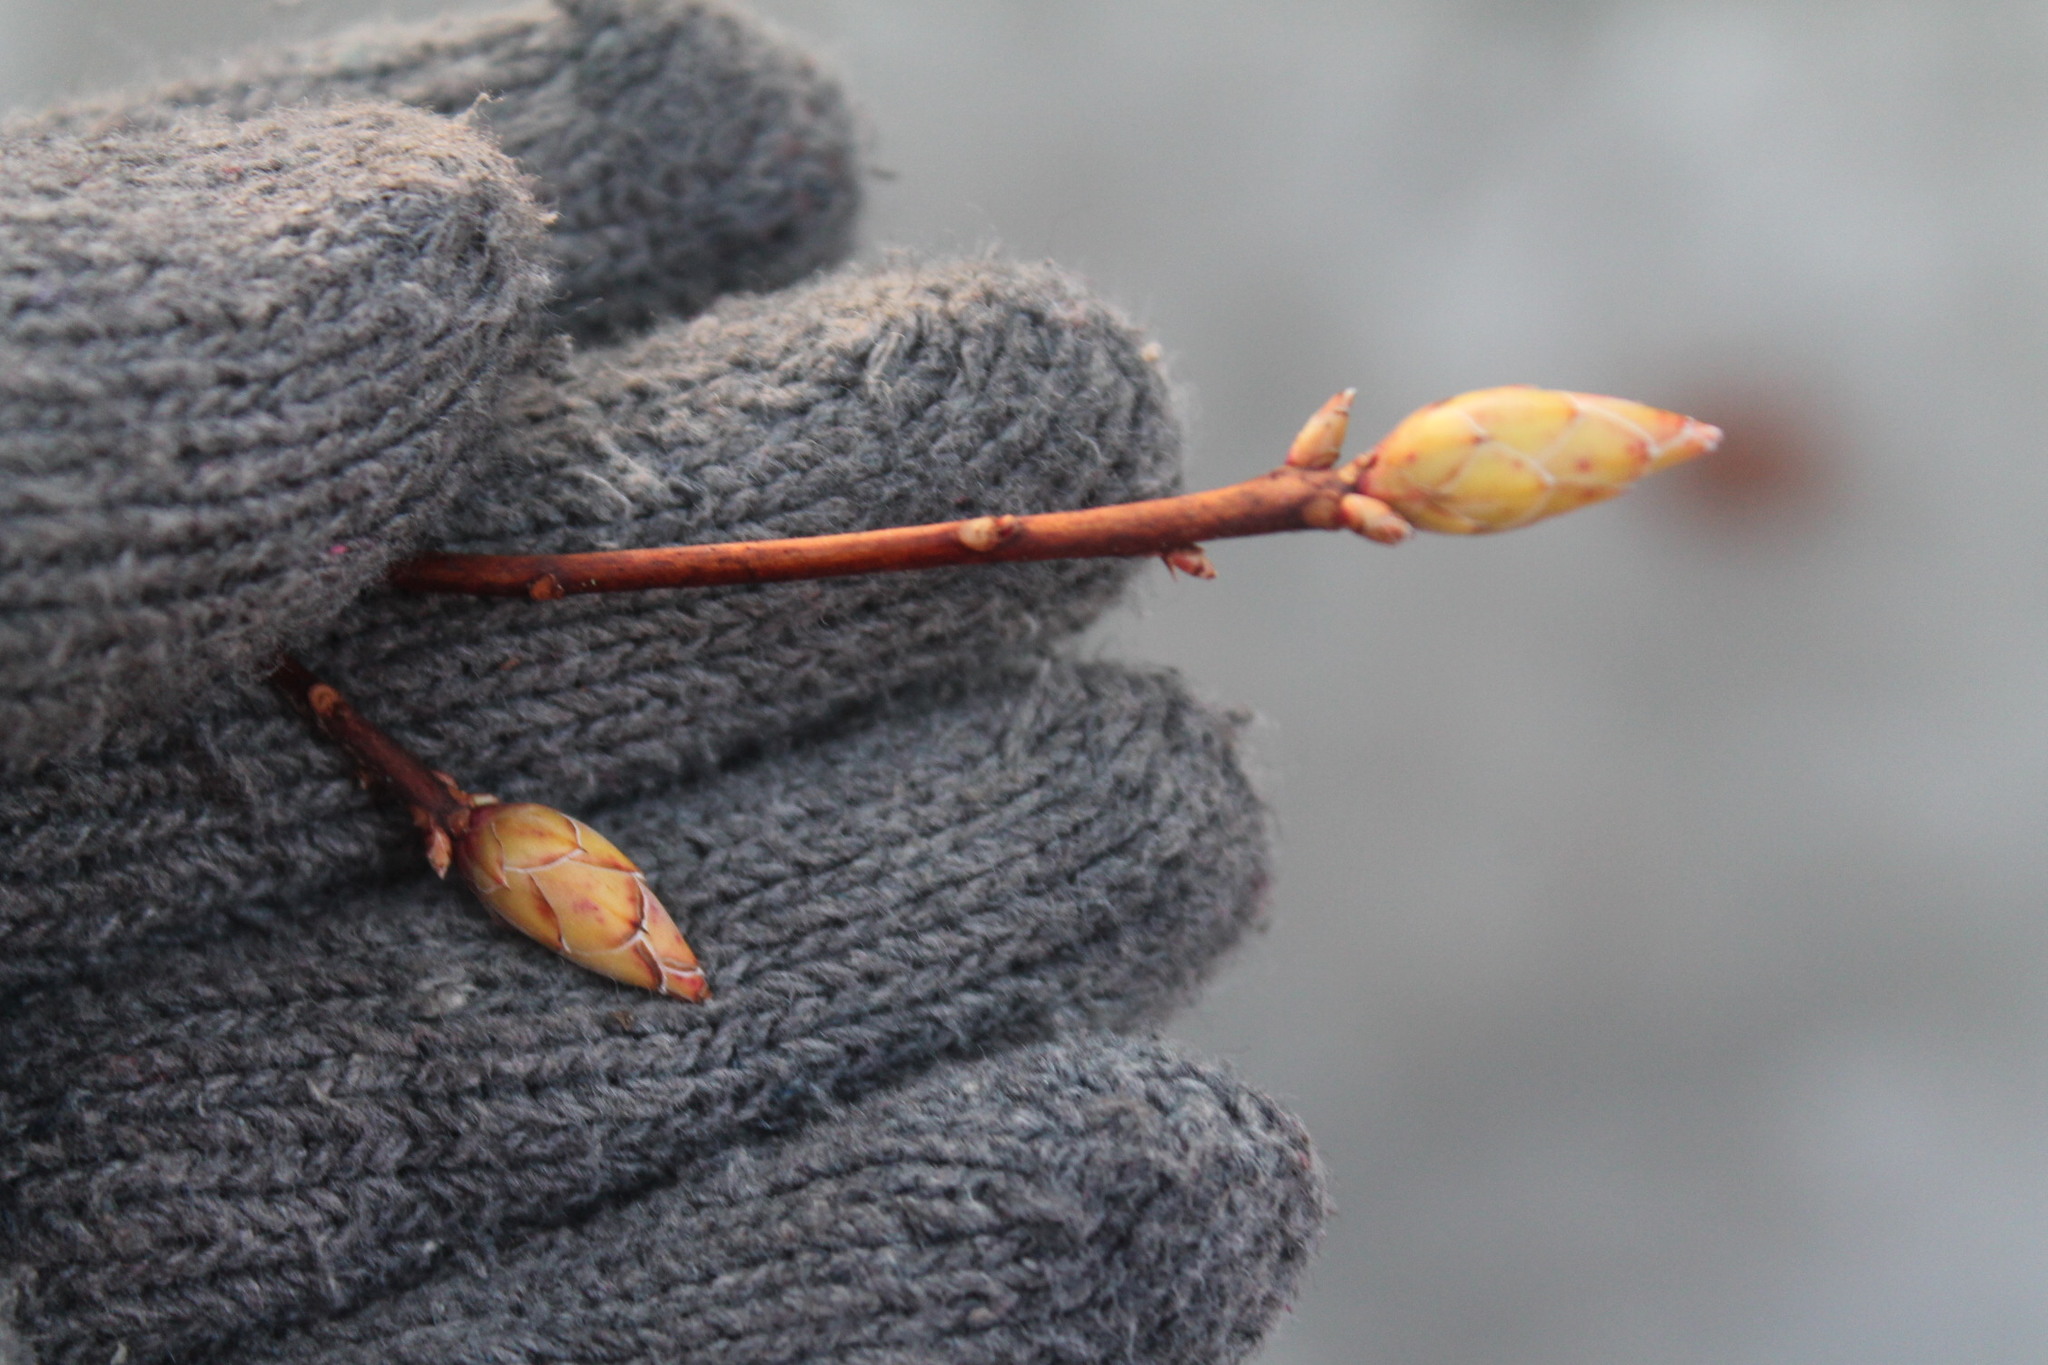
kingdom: Plantae
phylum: Tracheophyta
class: Magnoliopsida
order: Ericales
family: Ericaceae
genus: Rhododendron
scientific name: Rhododendron periclymenoides
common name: Election-pink
